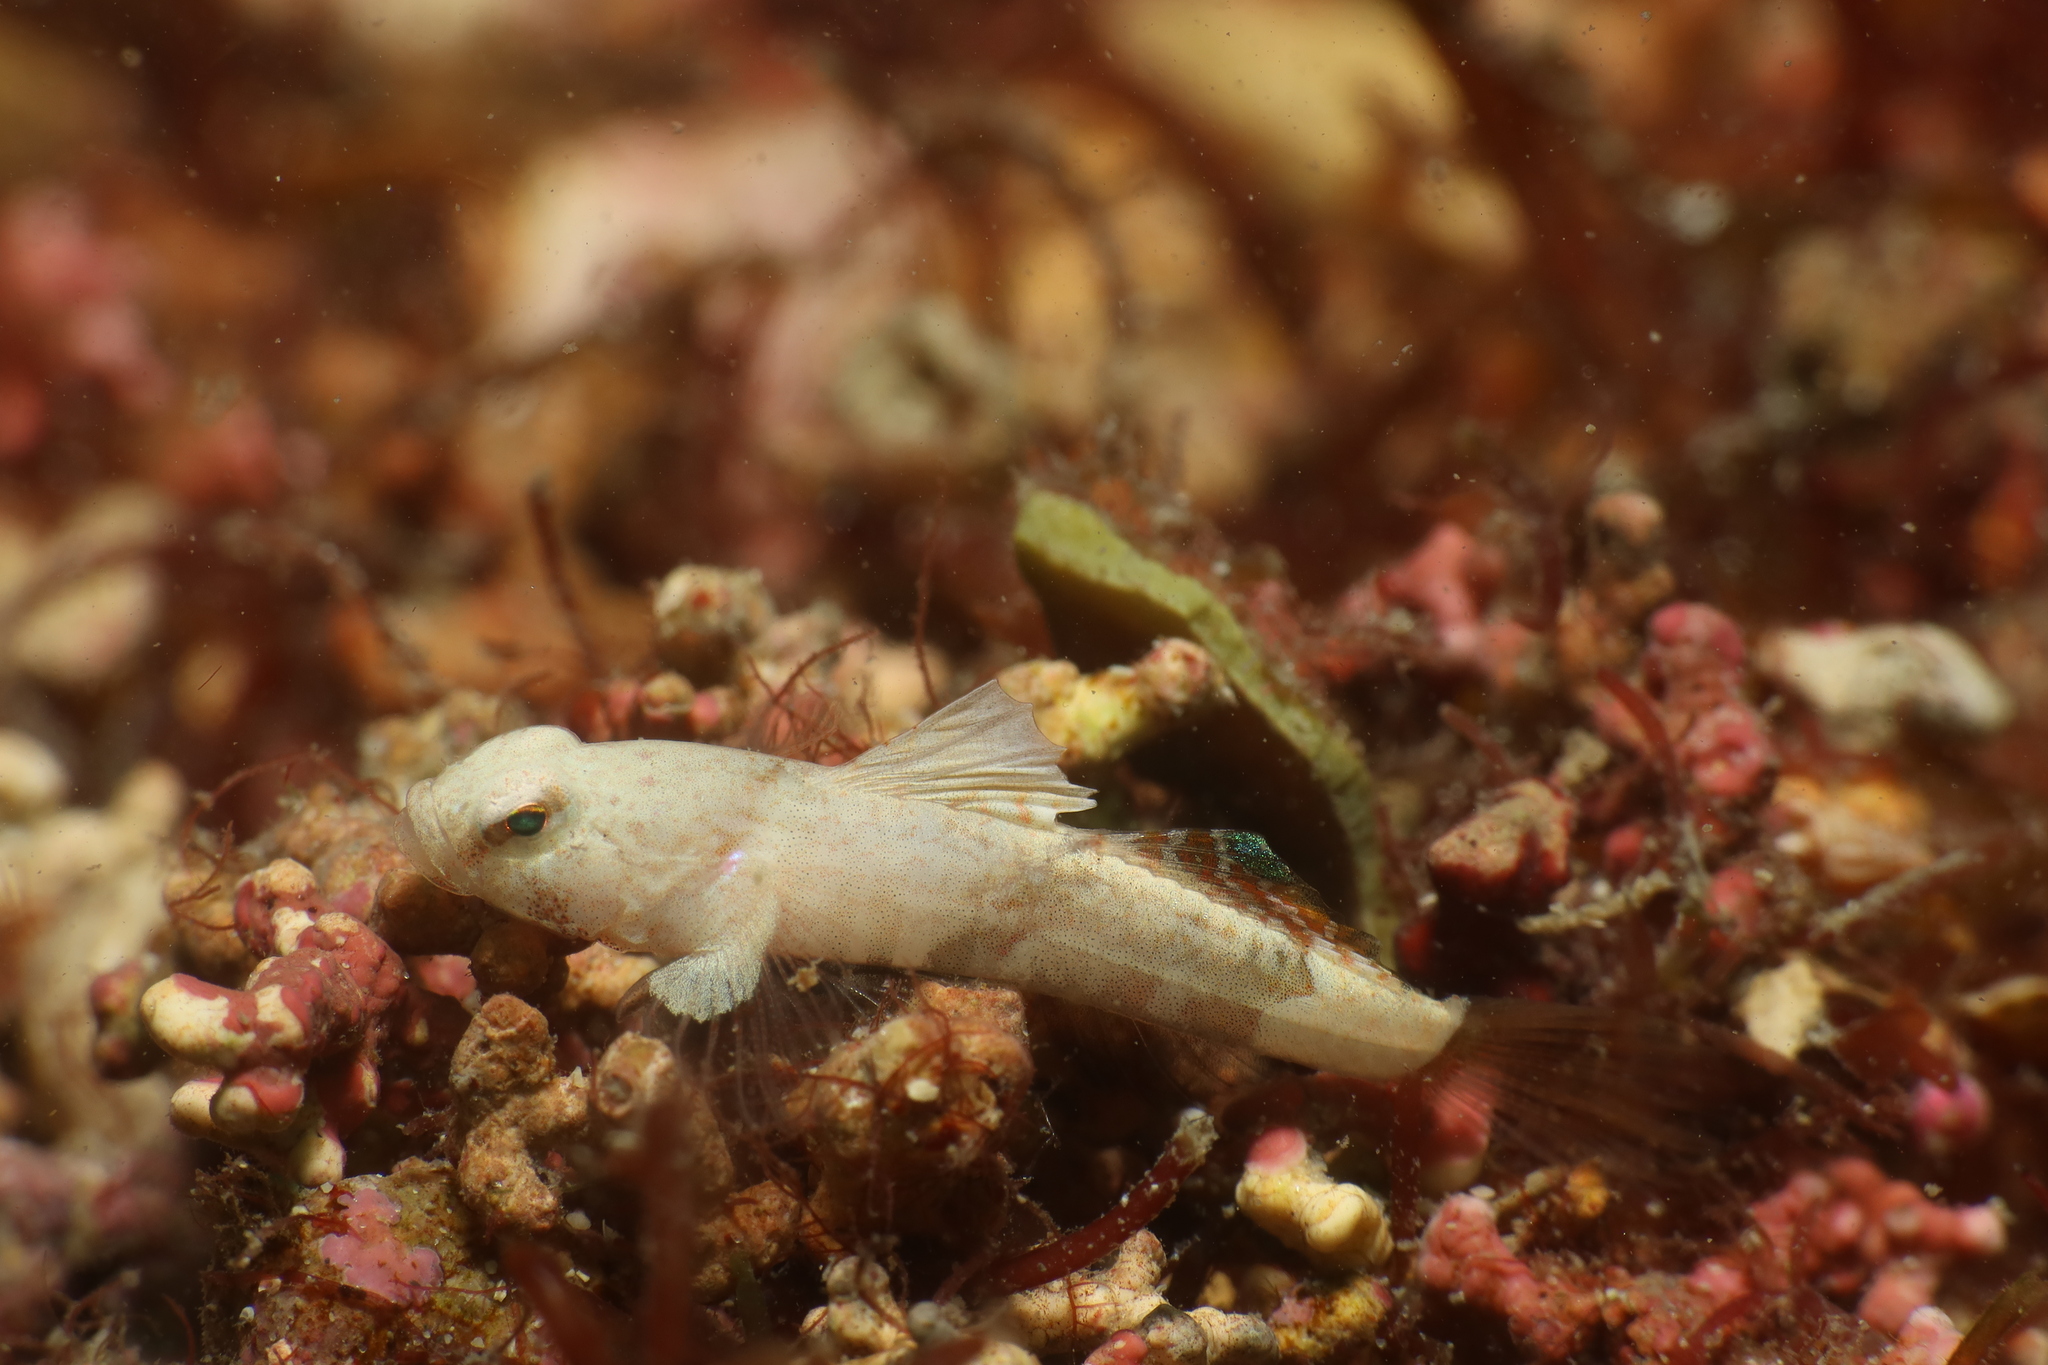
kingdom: Animalia
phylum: Chordata
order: Perciformes
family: Gobiidae
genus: Lebetus
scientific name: Lebetus guilleti
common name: Guillet's goby
